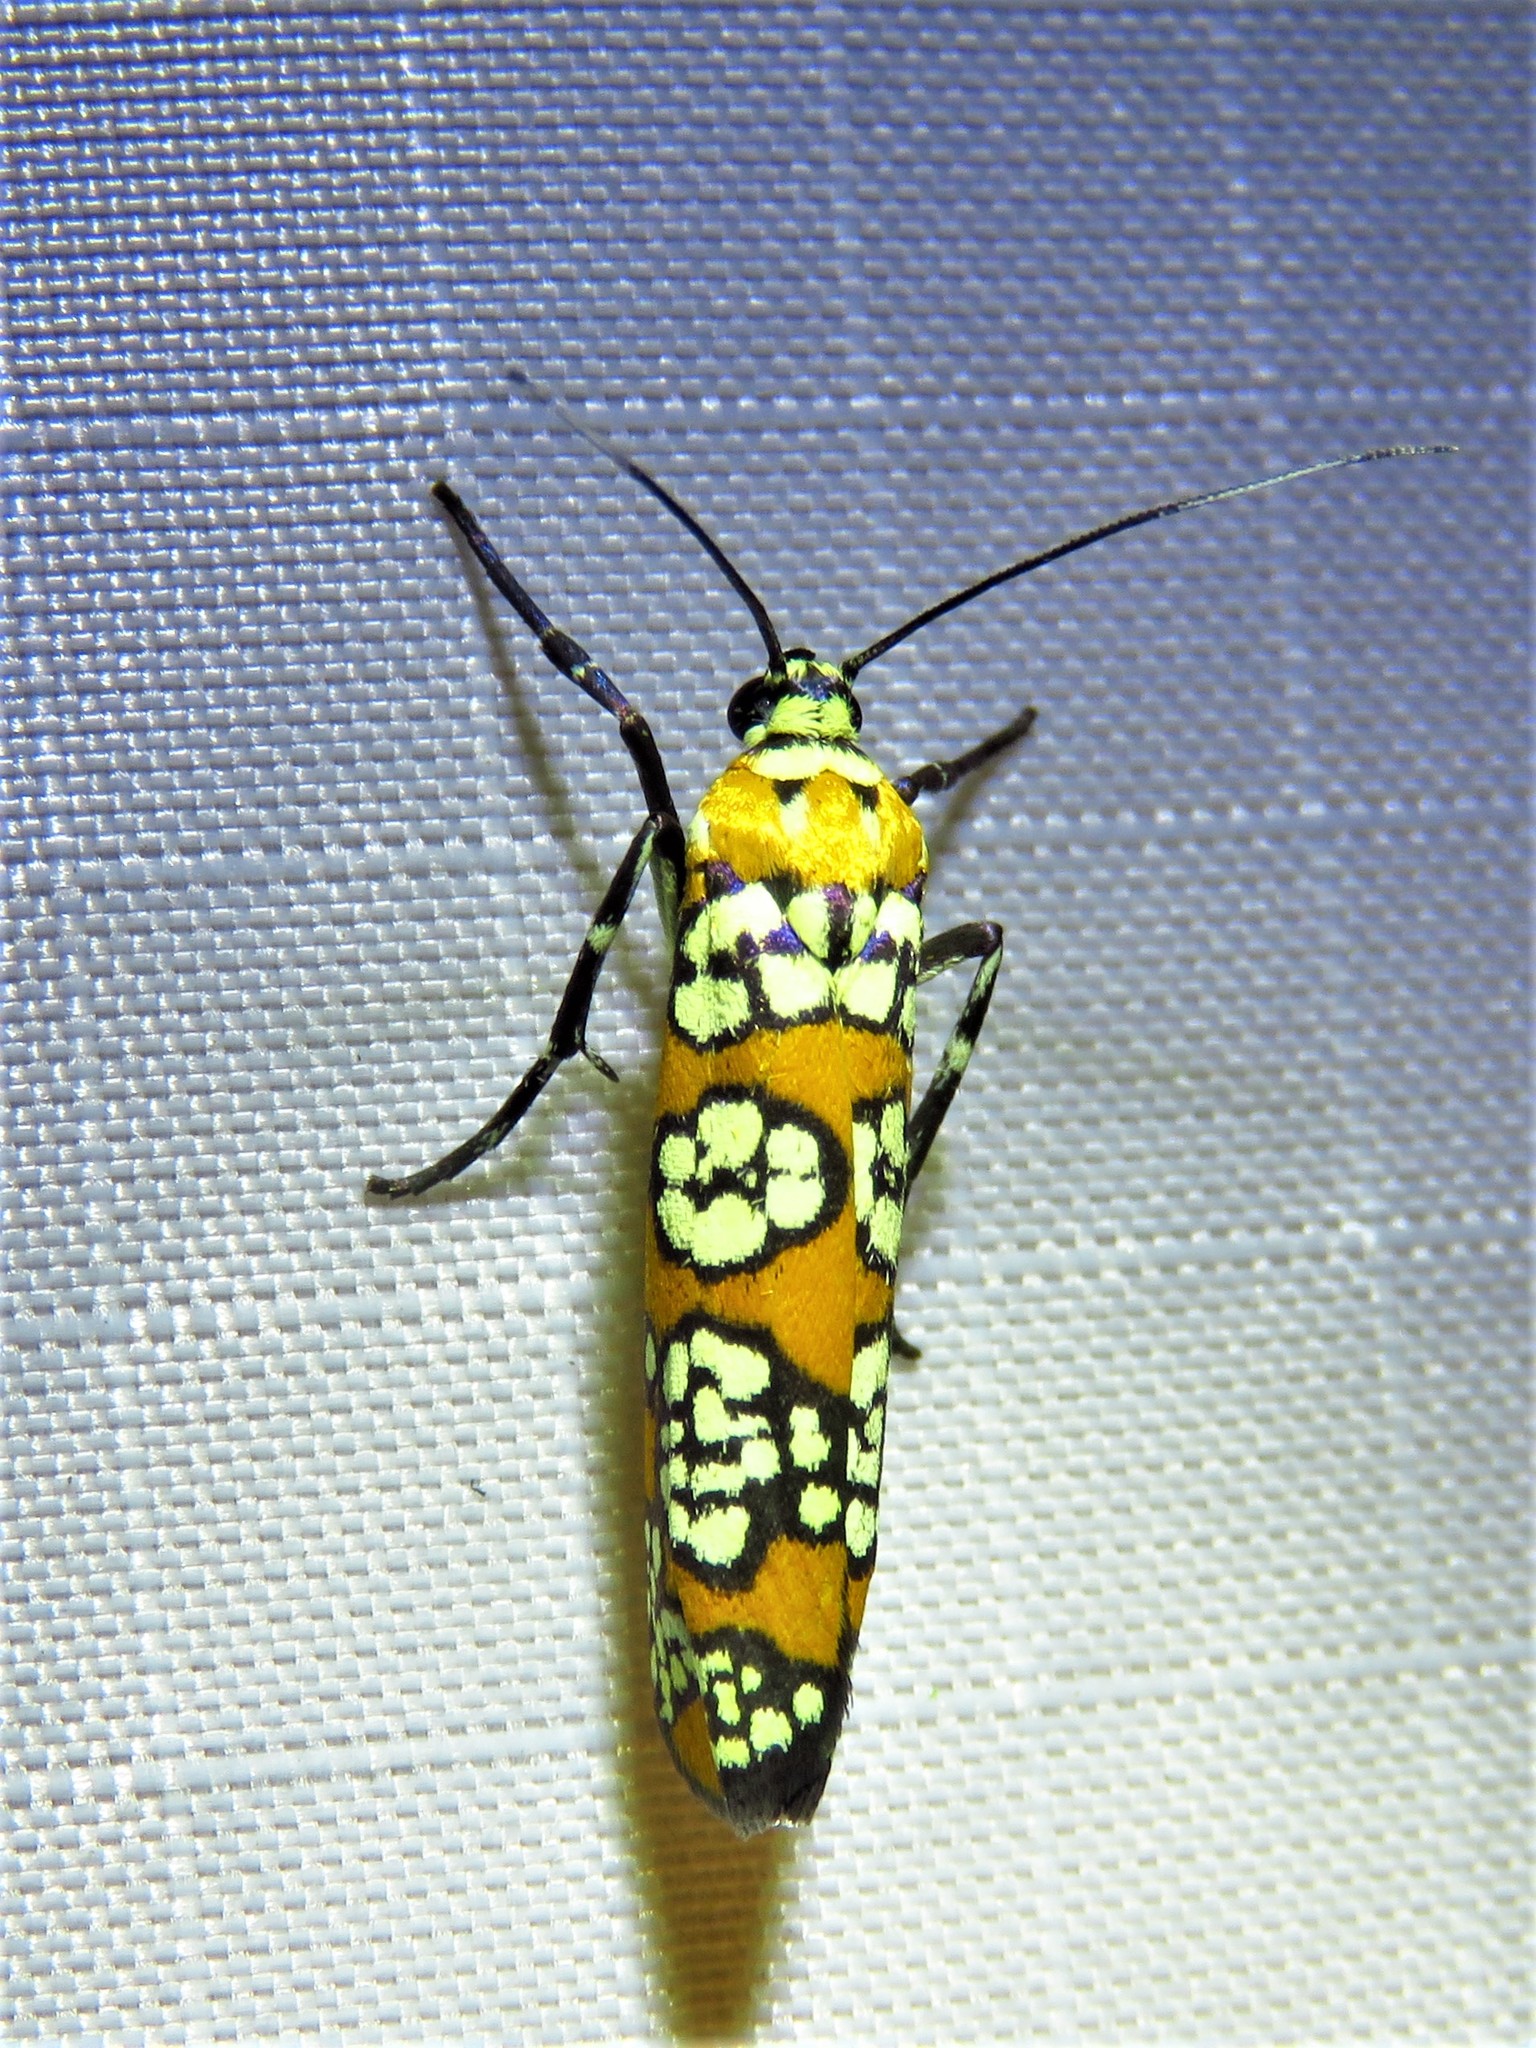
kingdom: Animalia
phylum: Arthropoda
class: Insecta
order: Lepidoptera
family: Attevidae
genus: Atteva
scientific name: Atteva punctella
